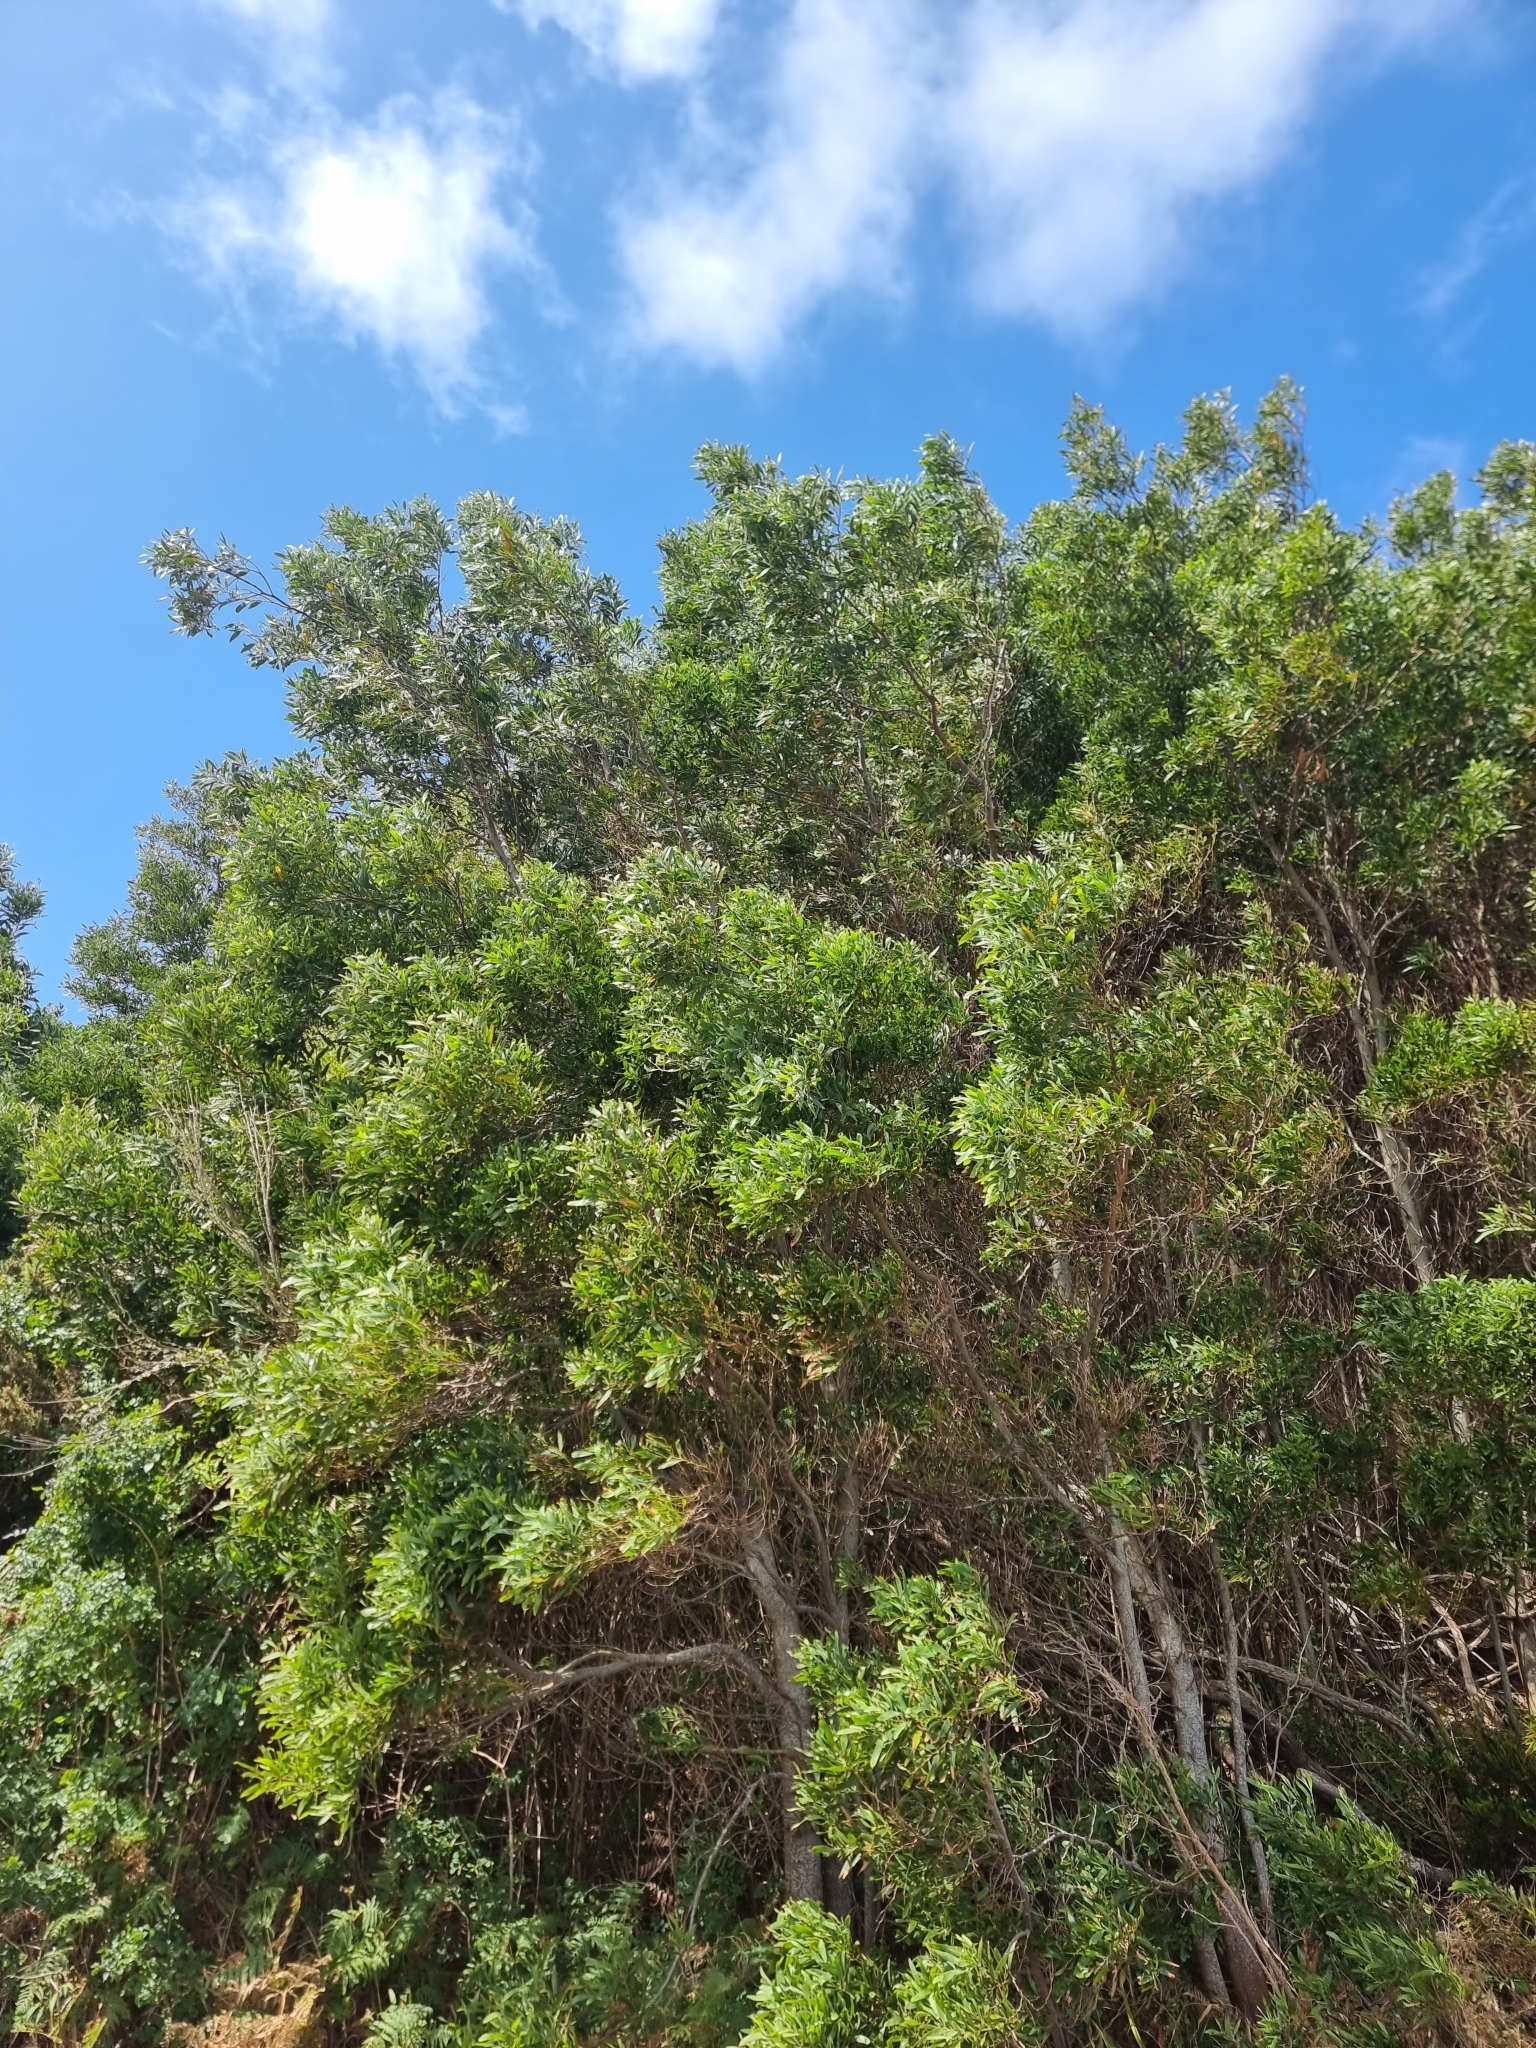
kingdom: Plantae
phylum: Tracheophyta
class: Magnoliopsida
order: Fabales
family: Fabaceae
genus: Acacia
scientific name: Acacia melanoxylon
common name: Blackwood
